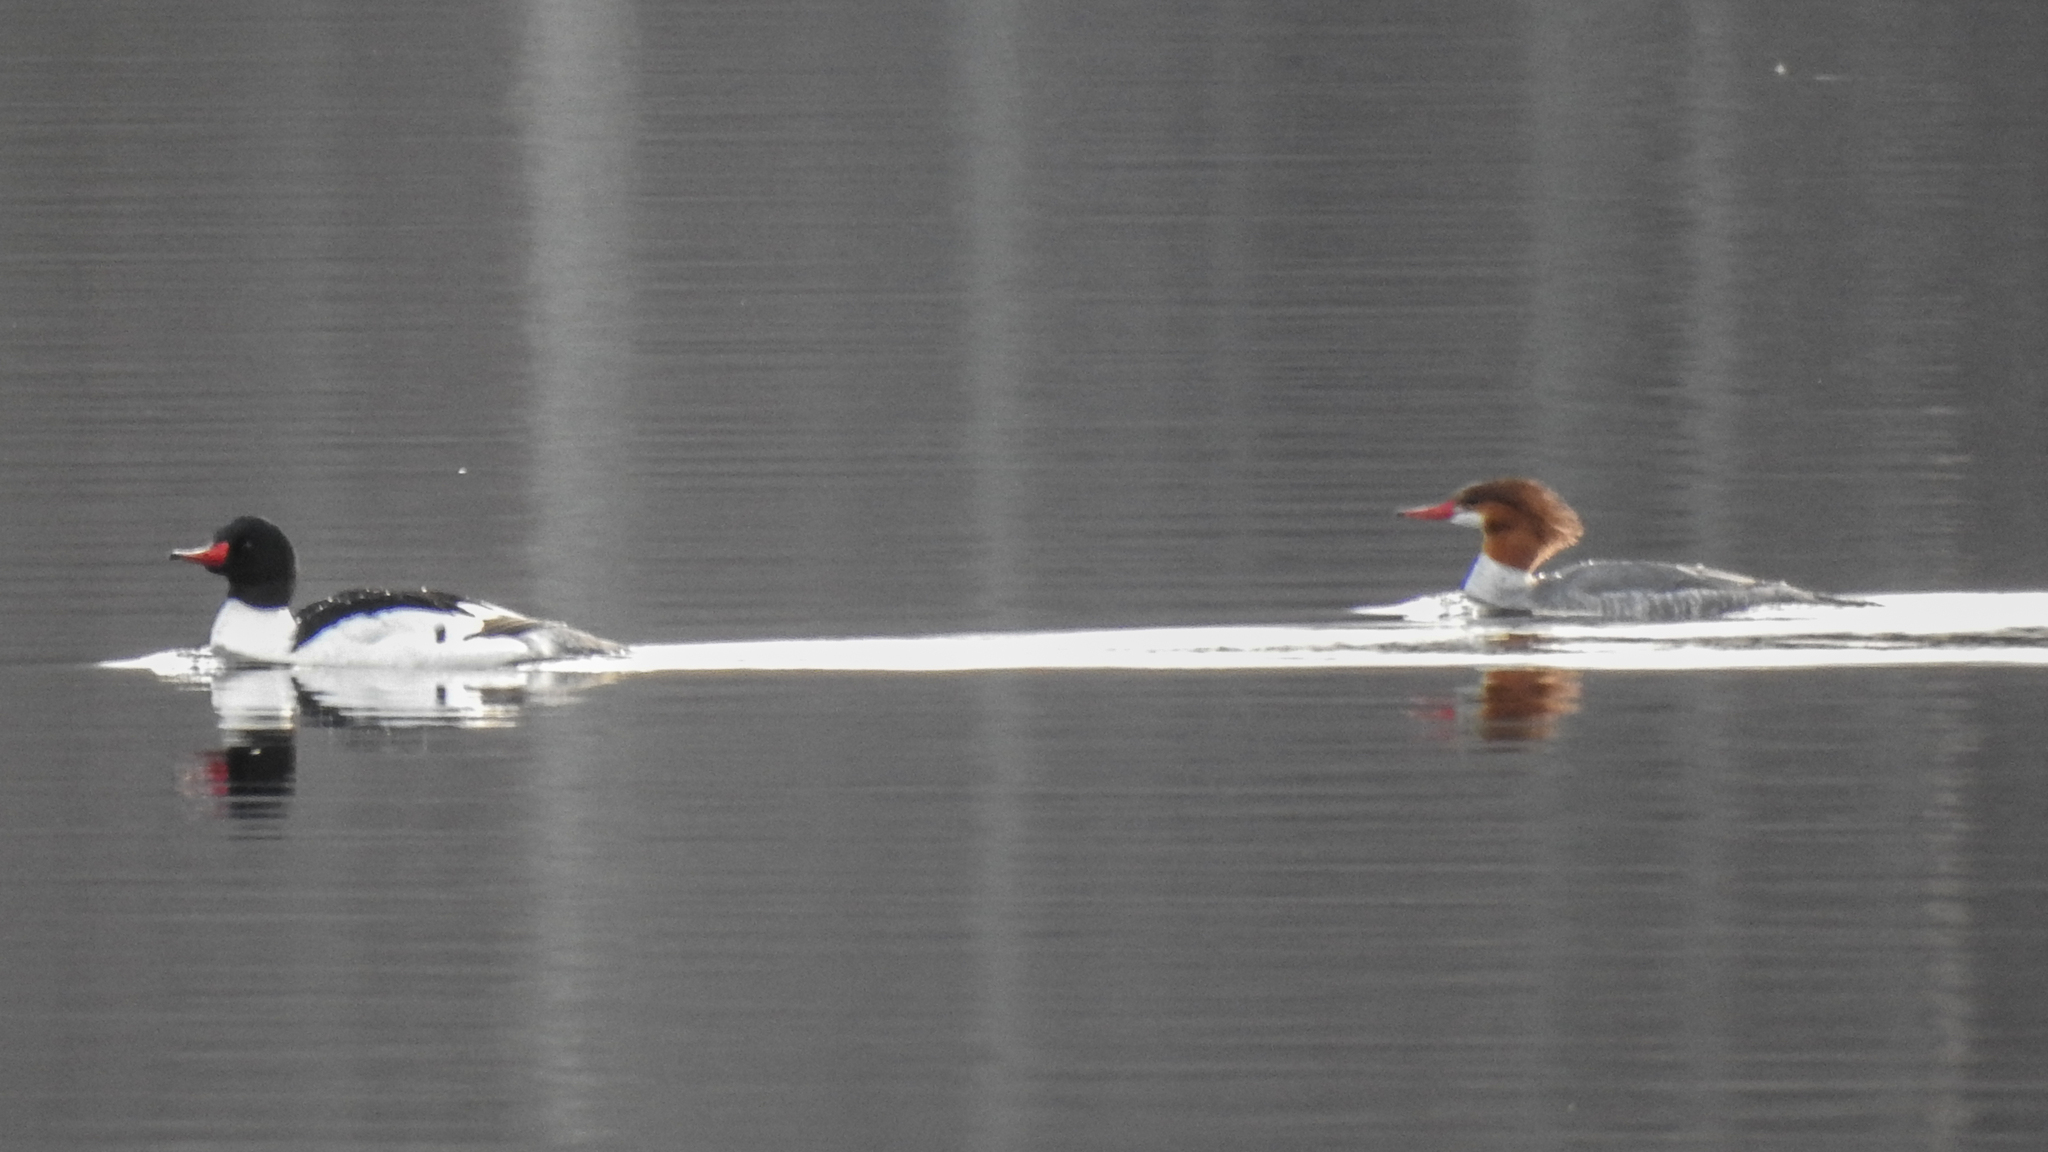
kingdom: Animalia
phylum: Chordata
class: Aves
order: Anseriformes
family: Anatidae
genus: Mergus
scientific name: Mergus merganser
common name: Common merganser
